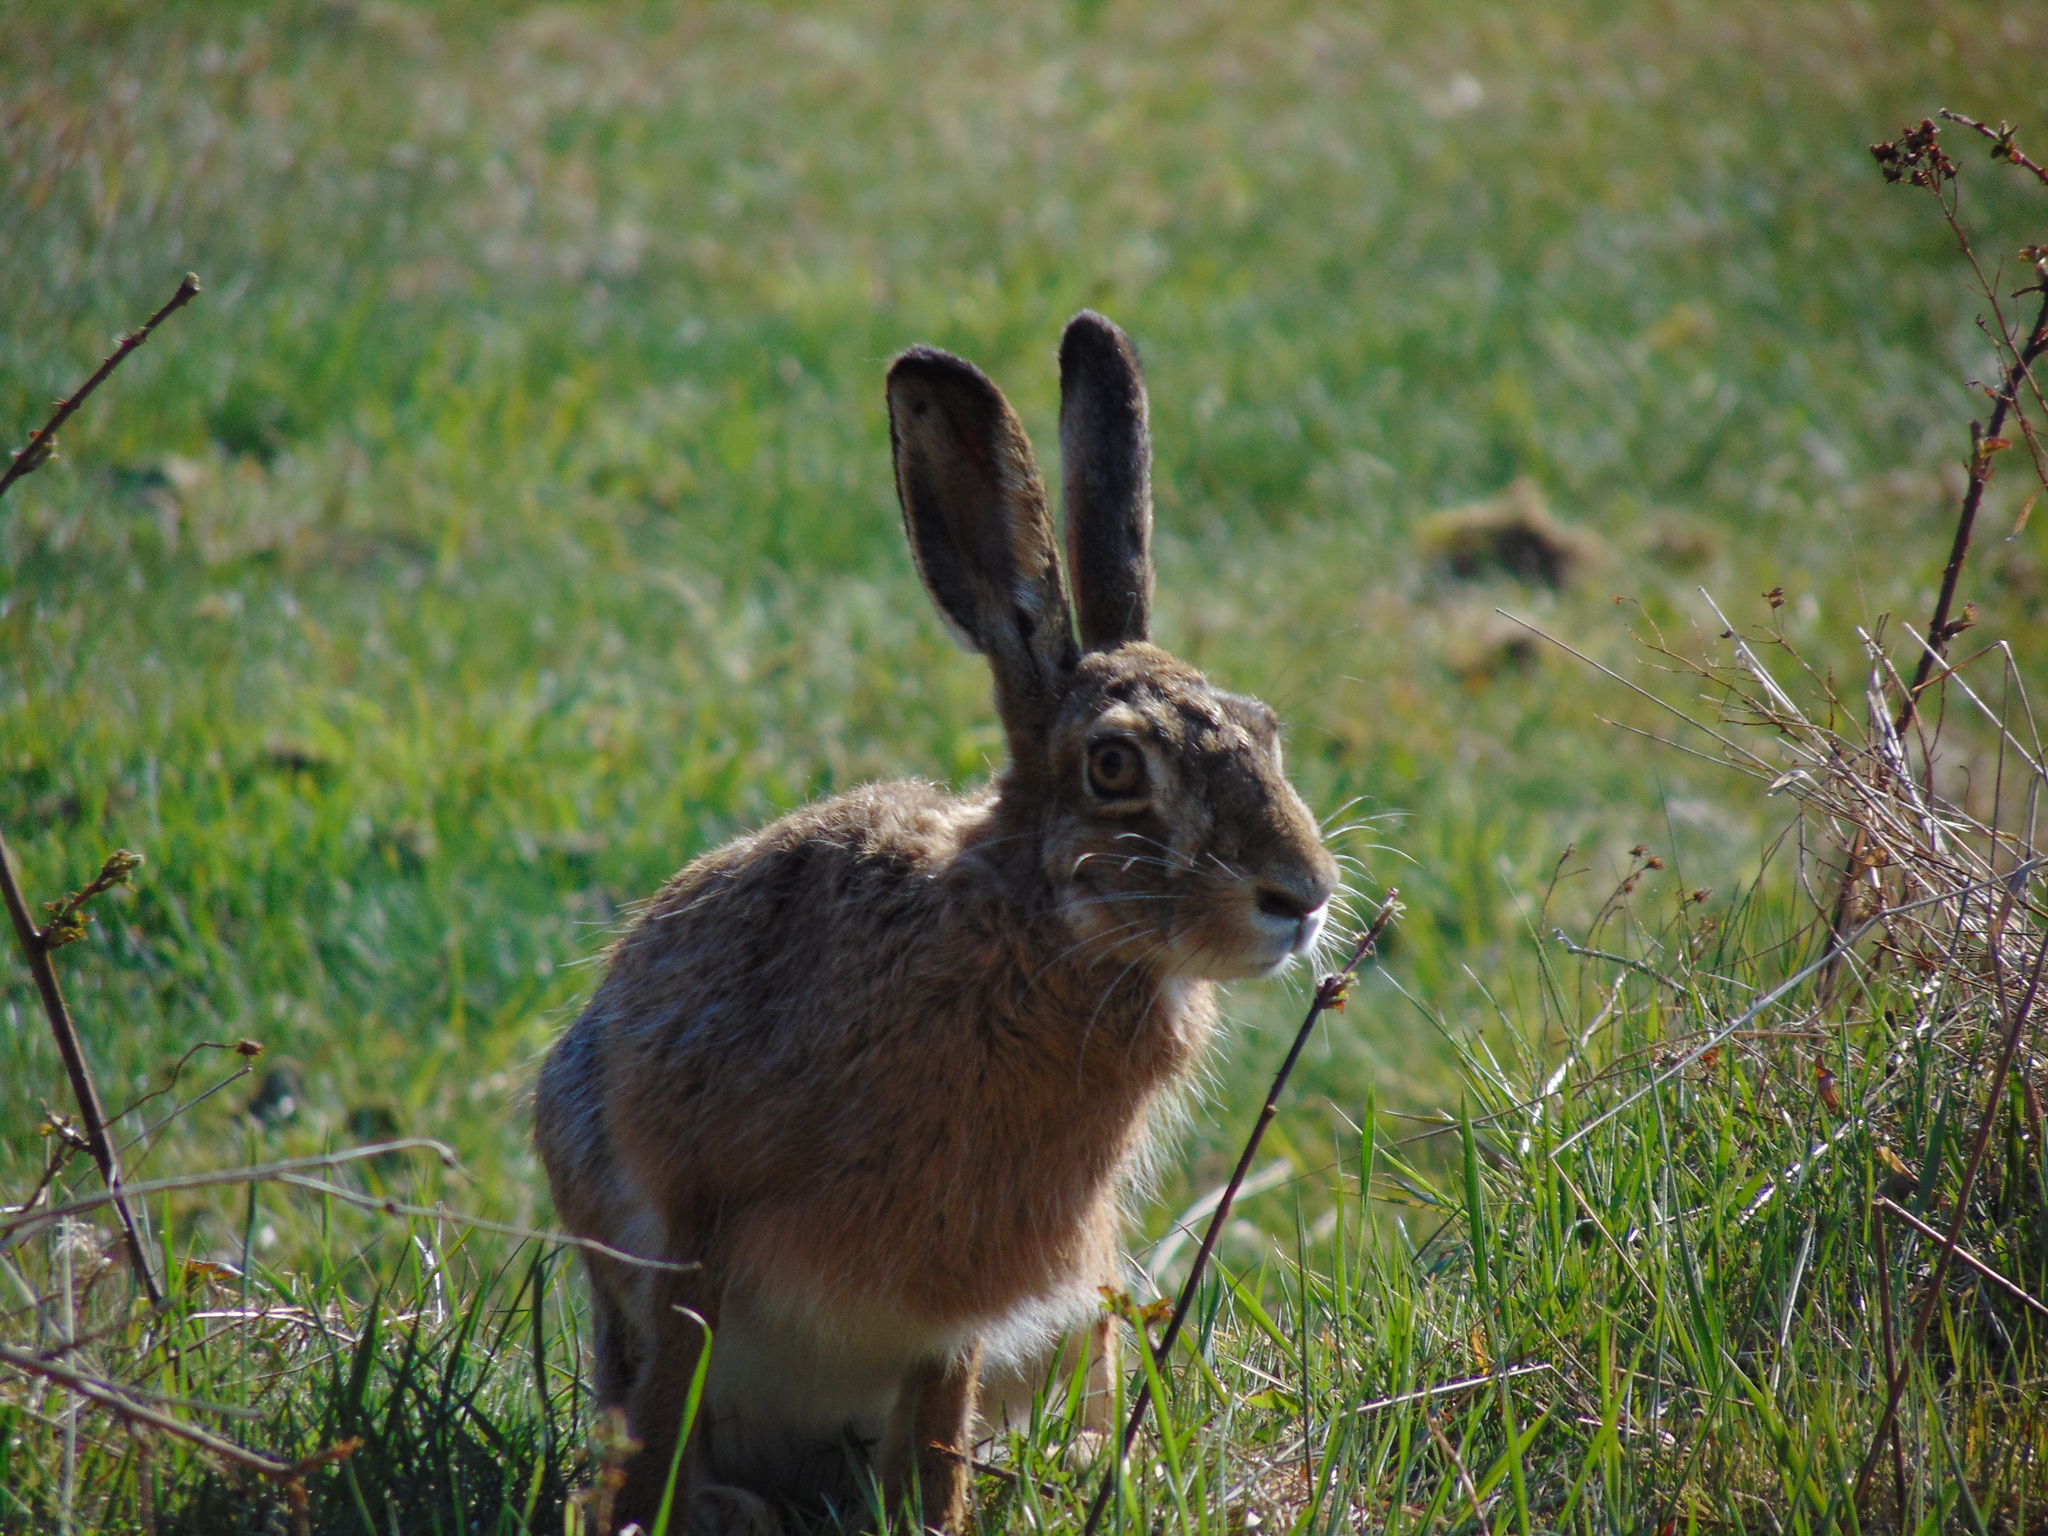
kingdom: Animalia
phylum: Chordata
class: Mammalia
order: Lagomorpha
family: Leporidae
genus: Lepus
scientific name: Lepus europaeus
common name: European hare
